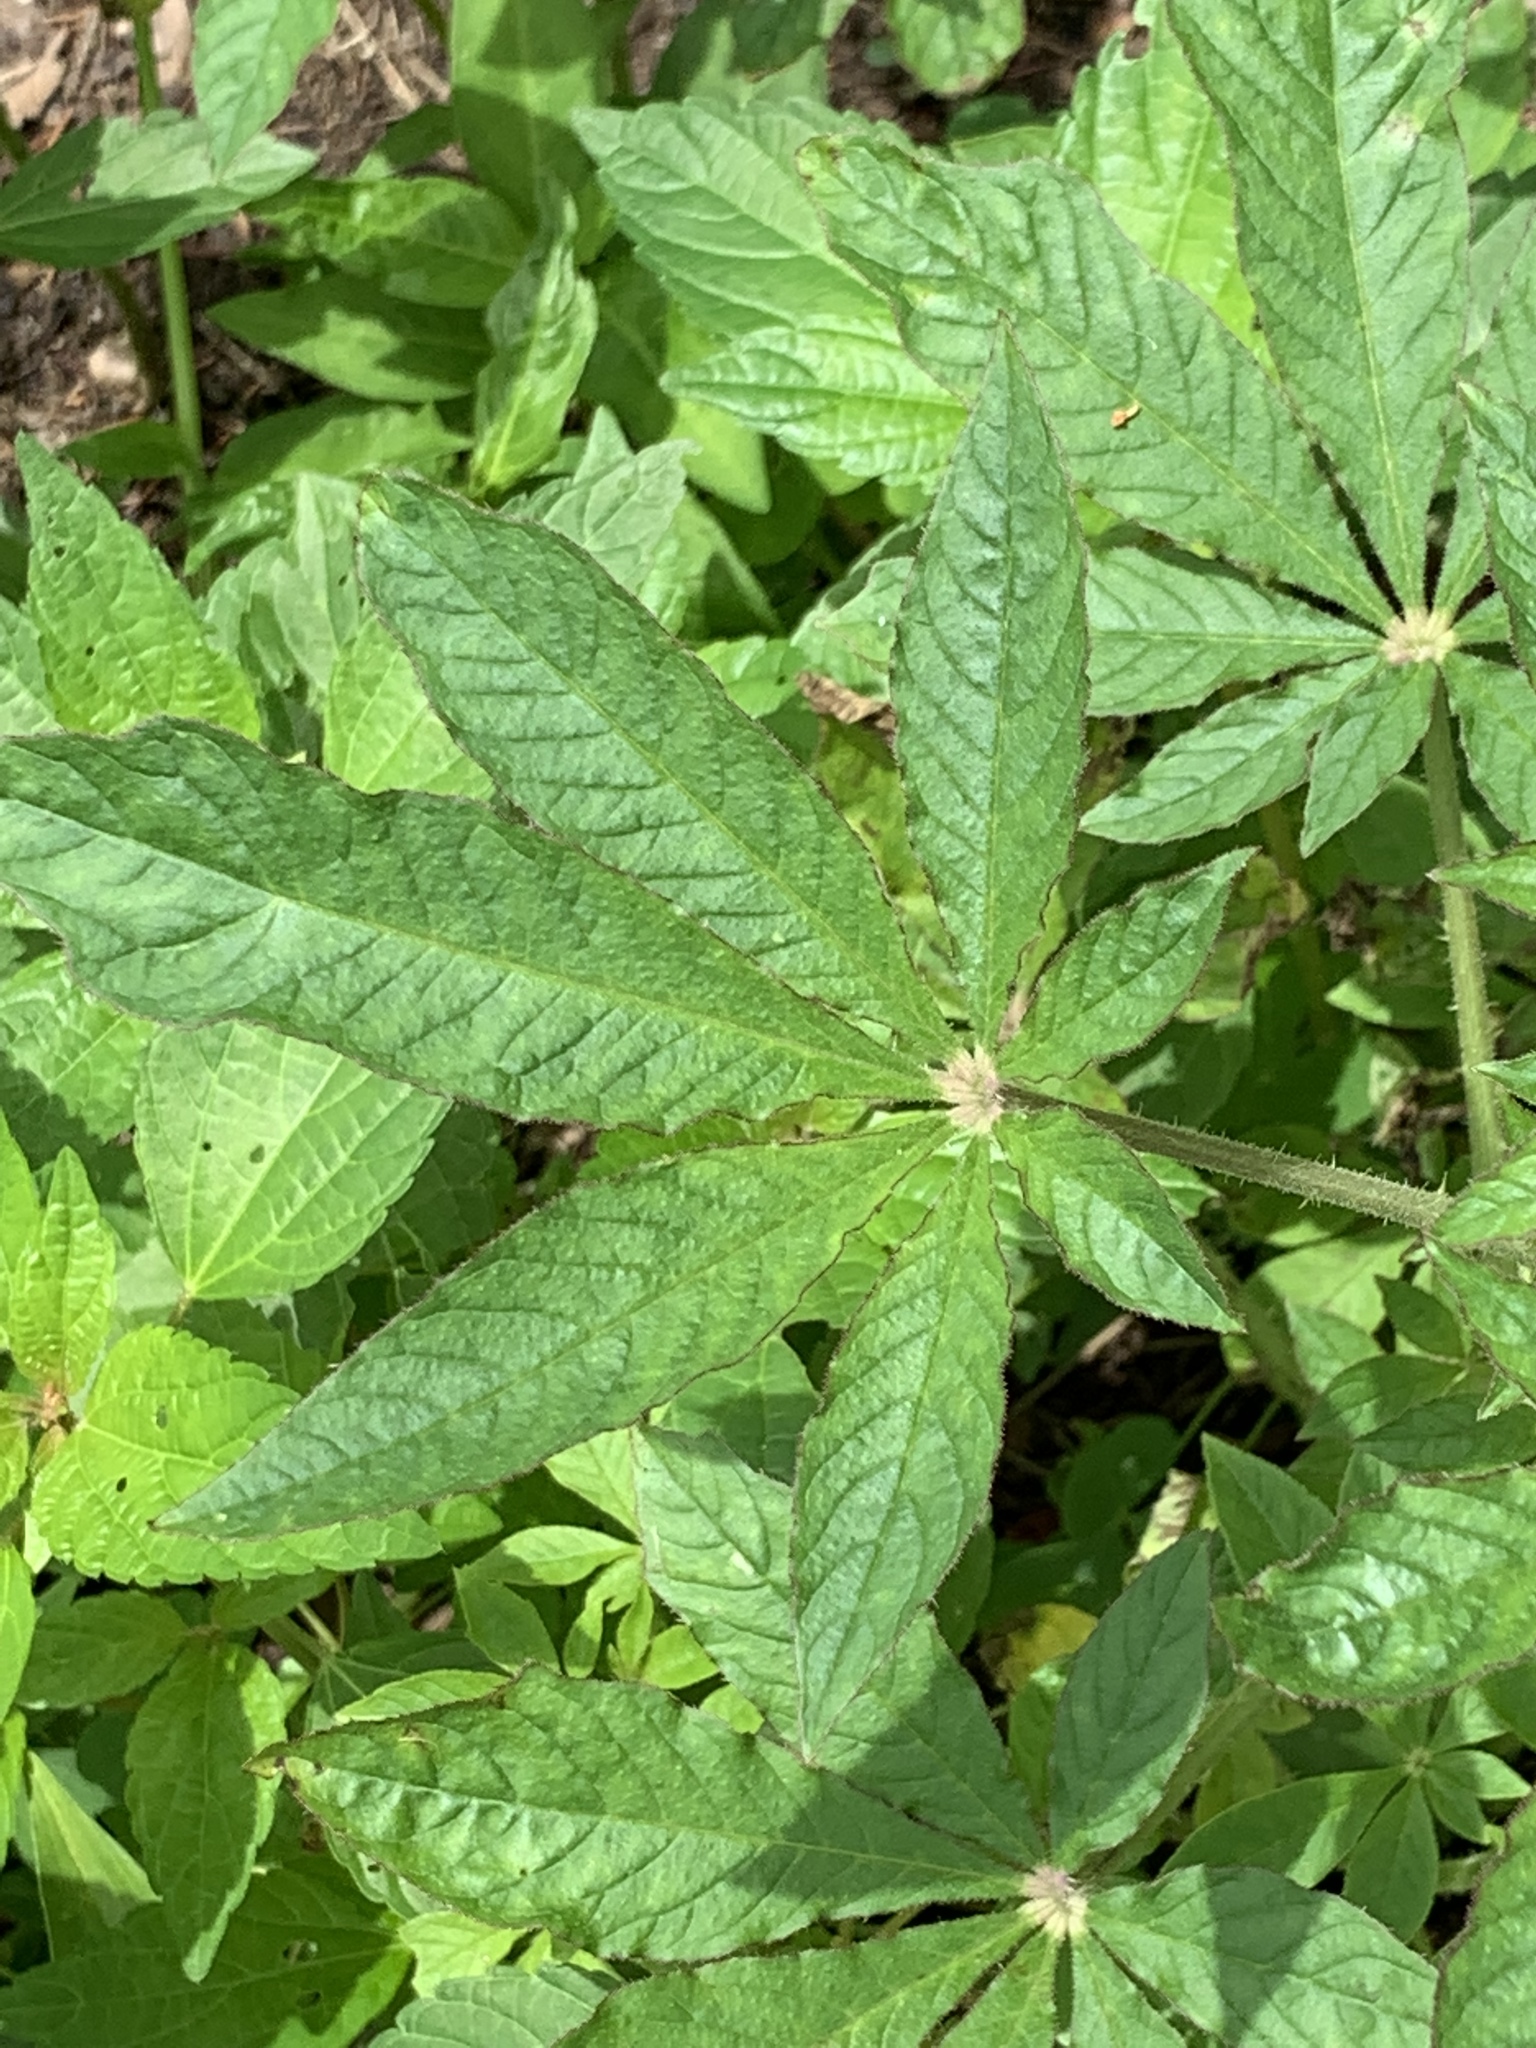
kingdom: Plantae
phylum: Tracheophyta
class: Magnoliopsida
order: Brassicales
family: Cleomaceae
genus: Tarenaya
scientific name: Tarenaya houtteana
